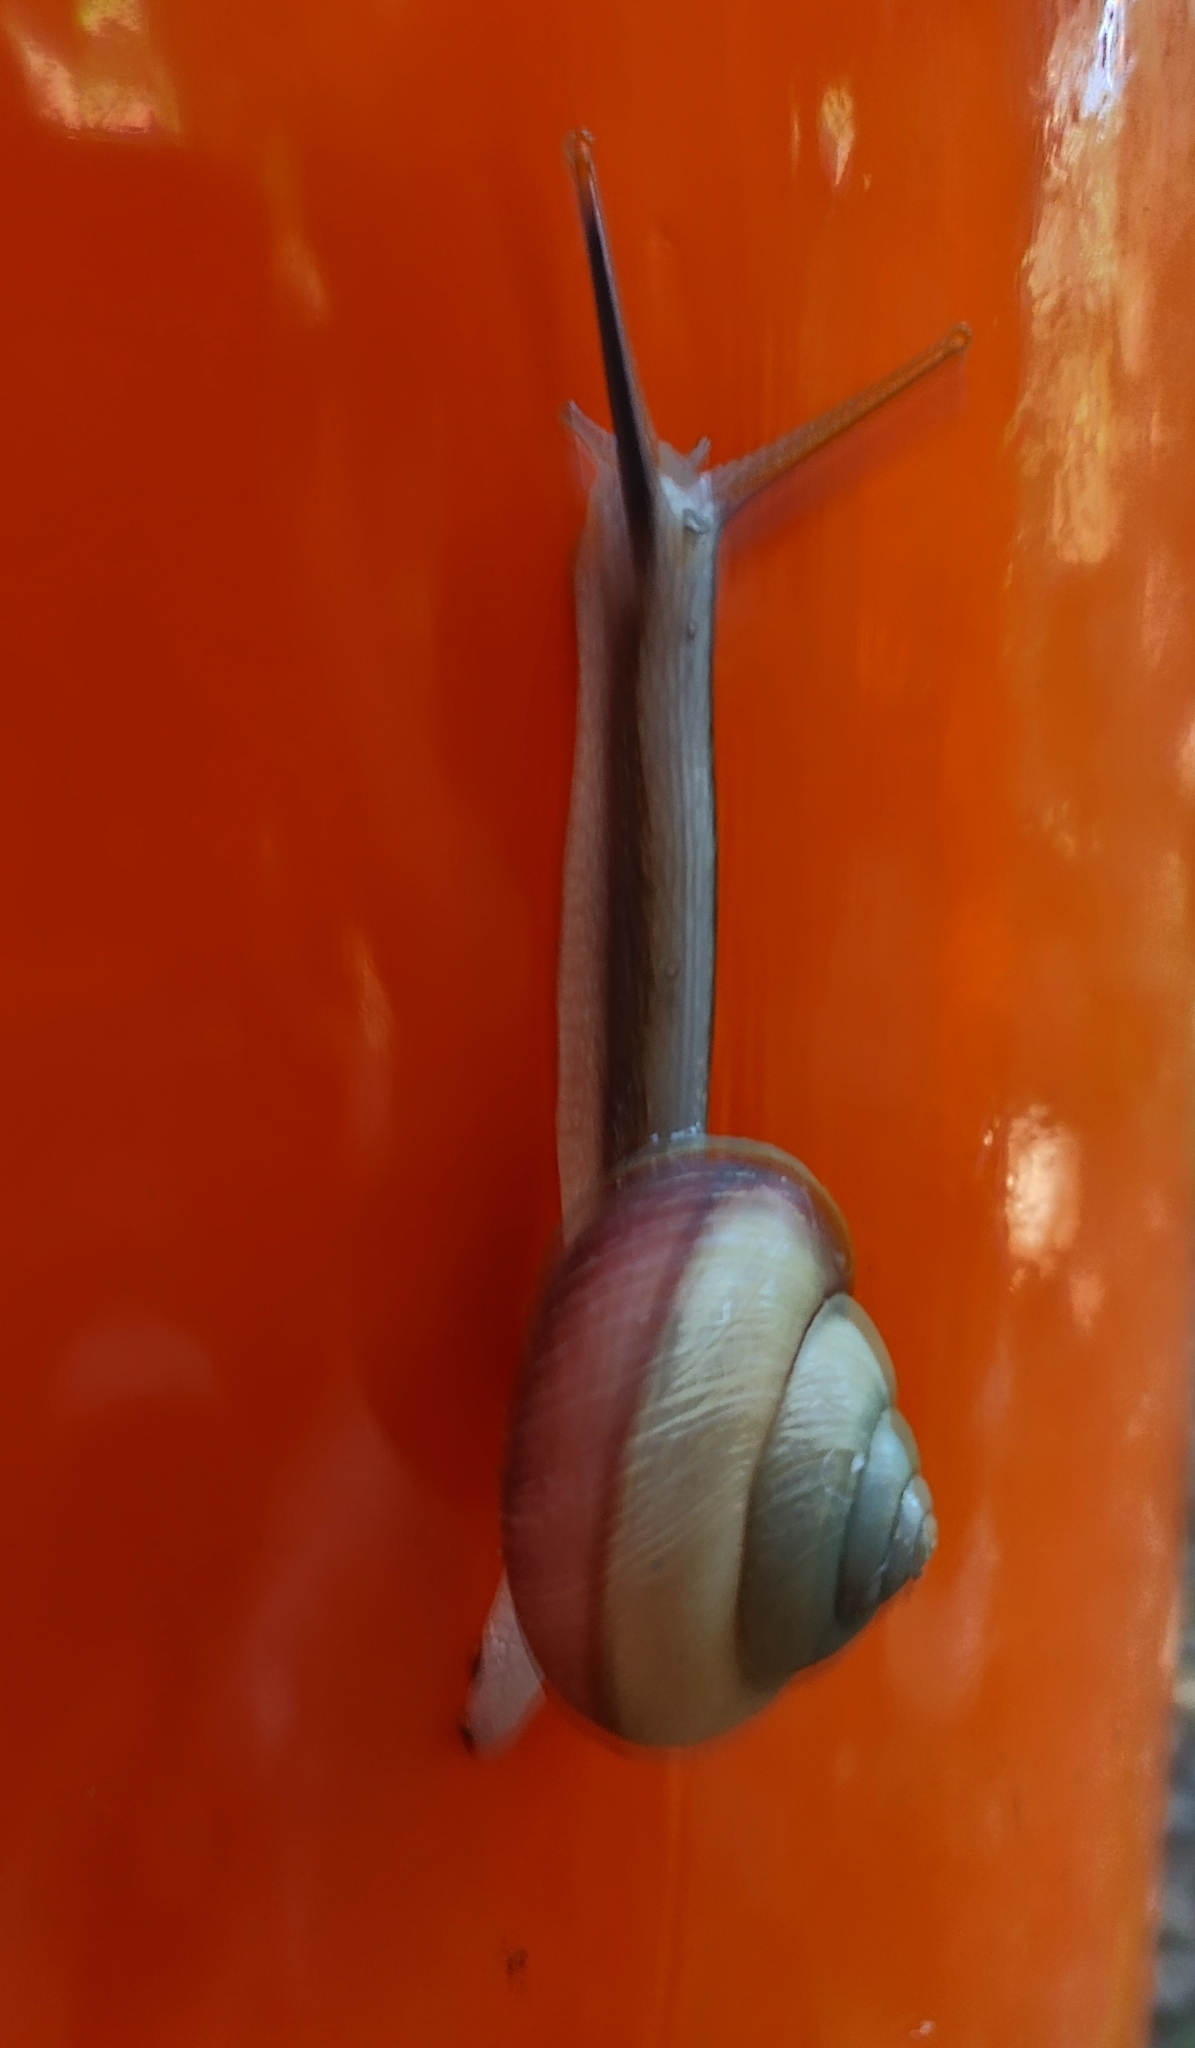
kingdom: Animalia
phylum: Mollusca
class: Gastropoda
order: Stylommatophora
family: Camaenidae
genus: Euhadra
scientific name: Euhadra amaliae
